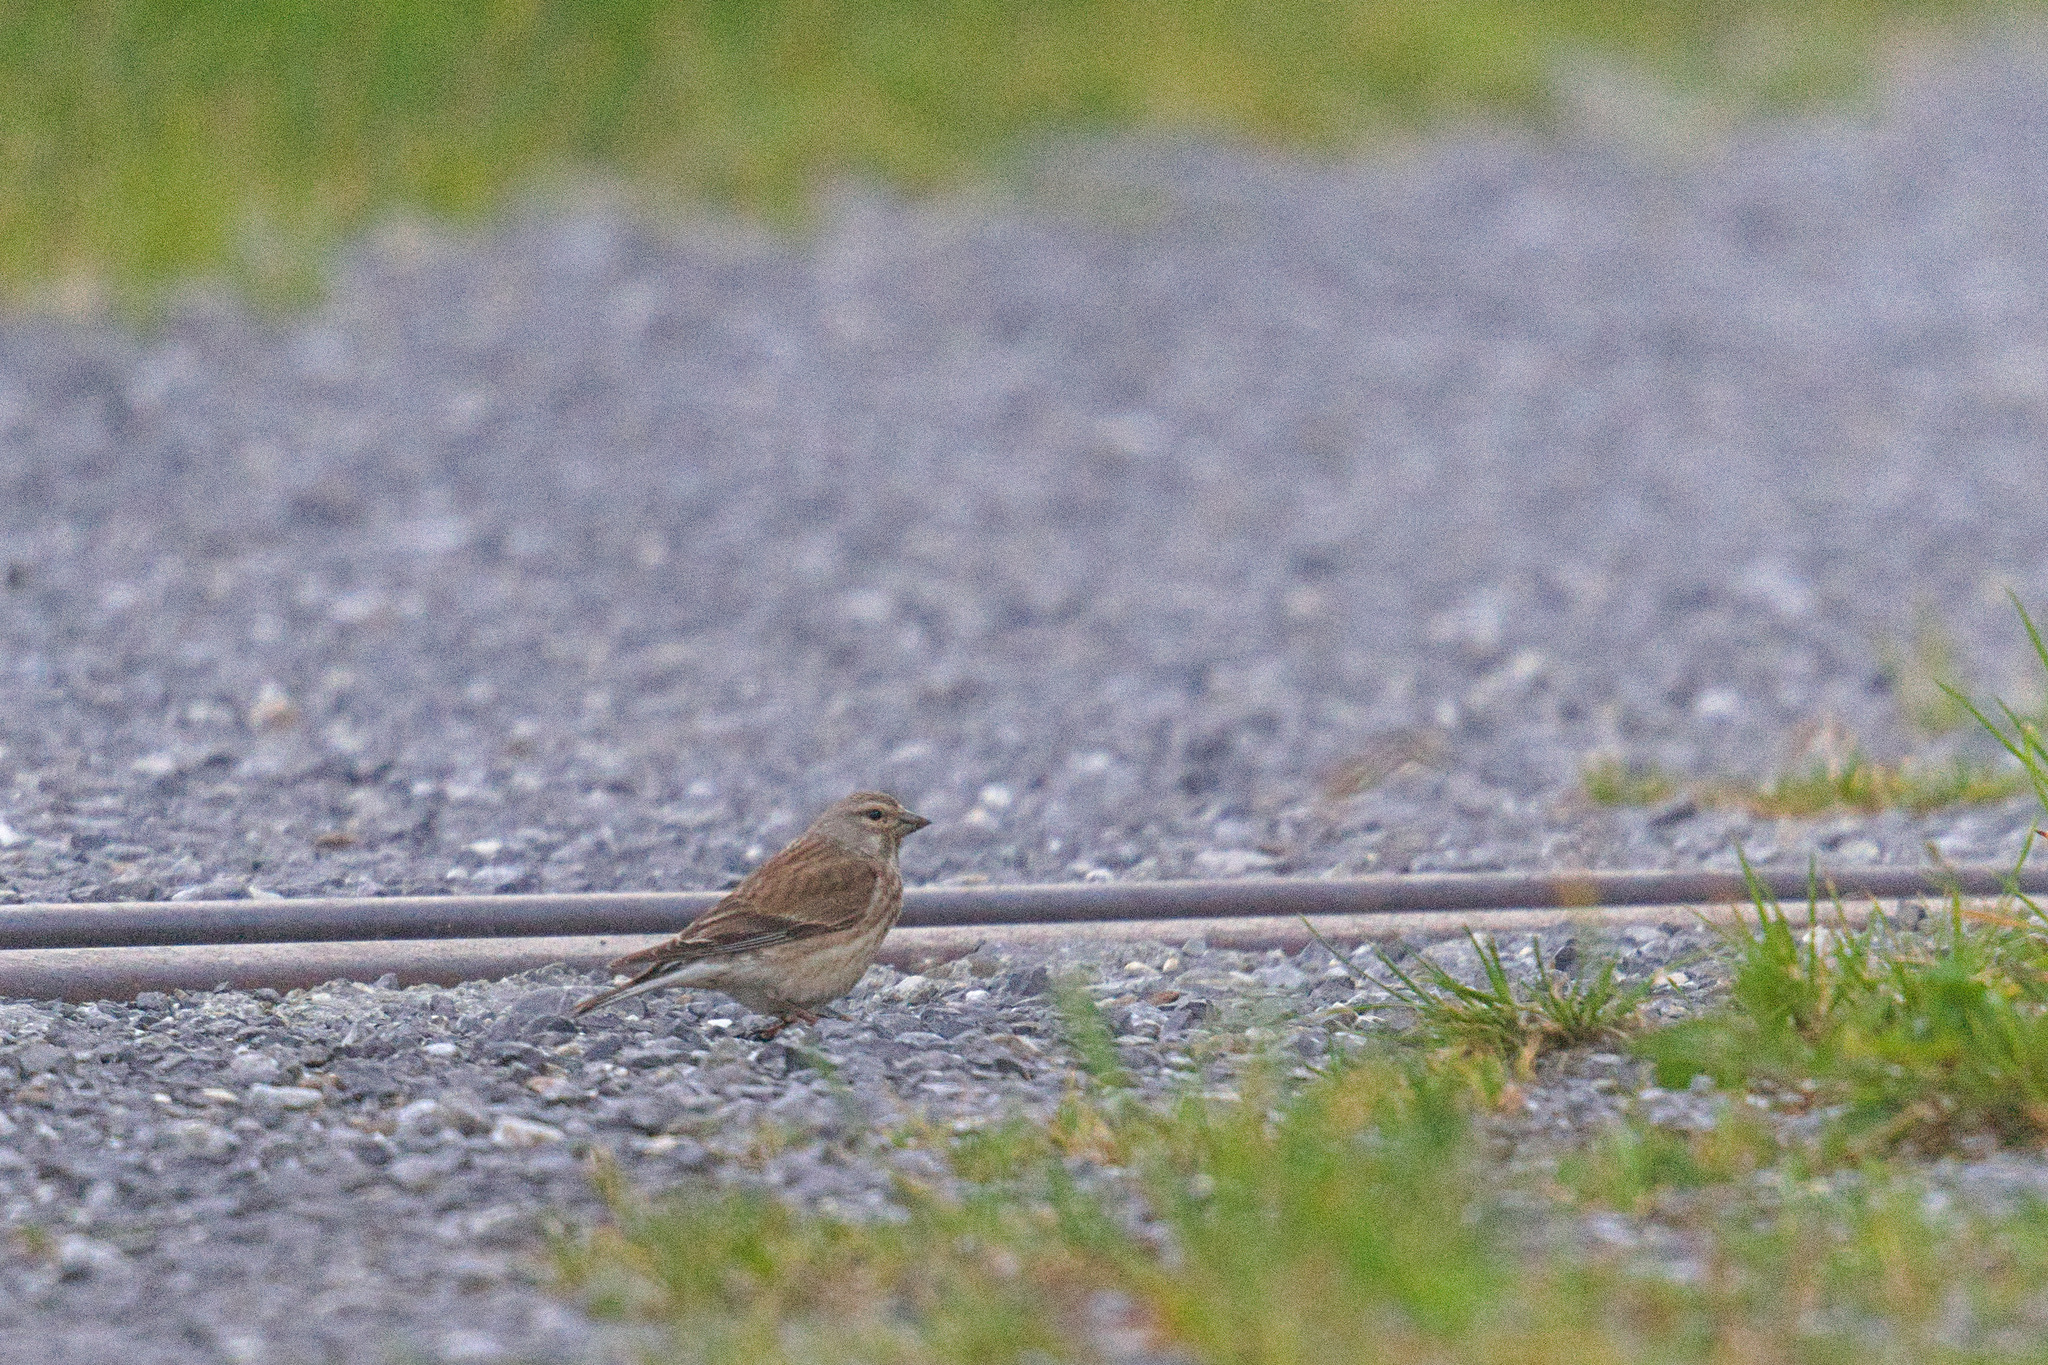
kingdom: Animalia
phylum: Chordata
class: Aves
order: Passeriformes
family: Fringillidae
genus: Linaria
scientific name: Linaria cannabina
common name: Common linnet
